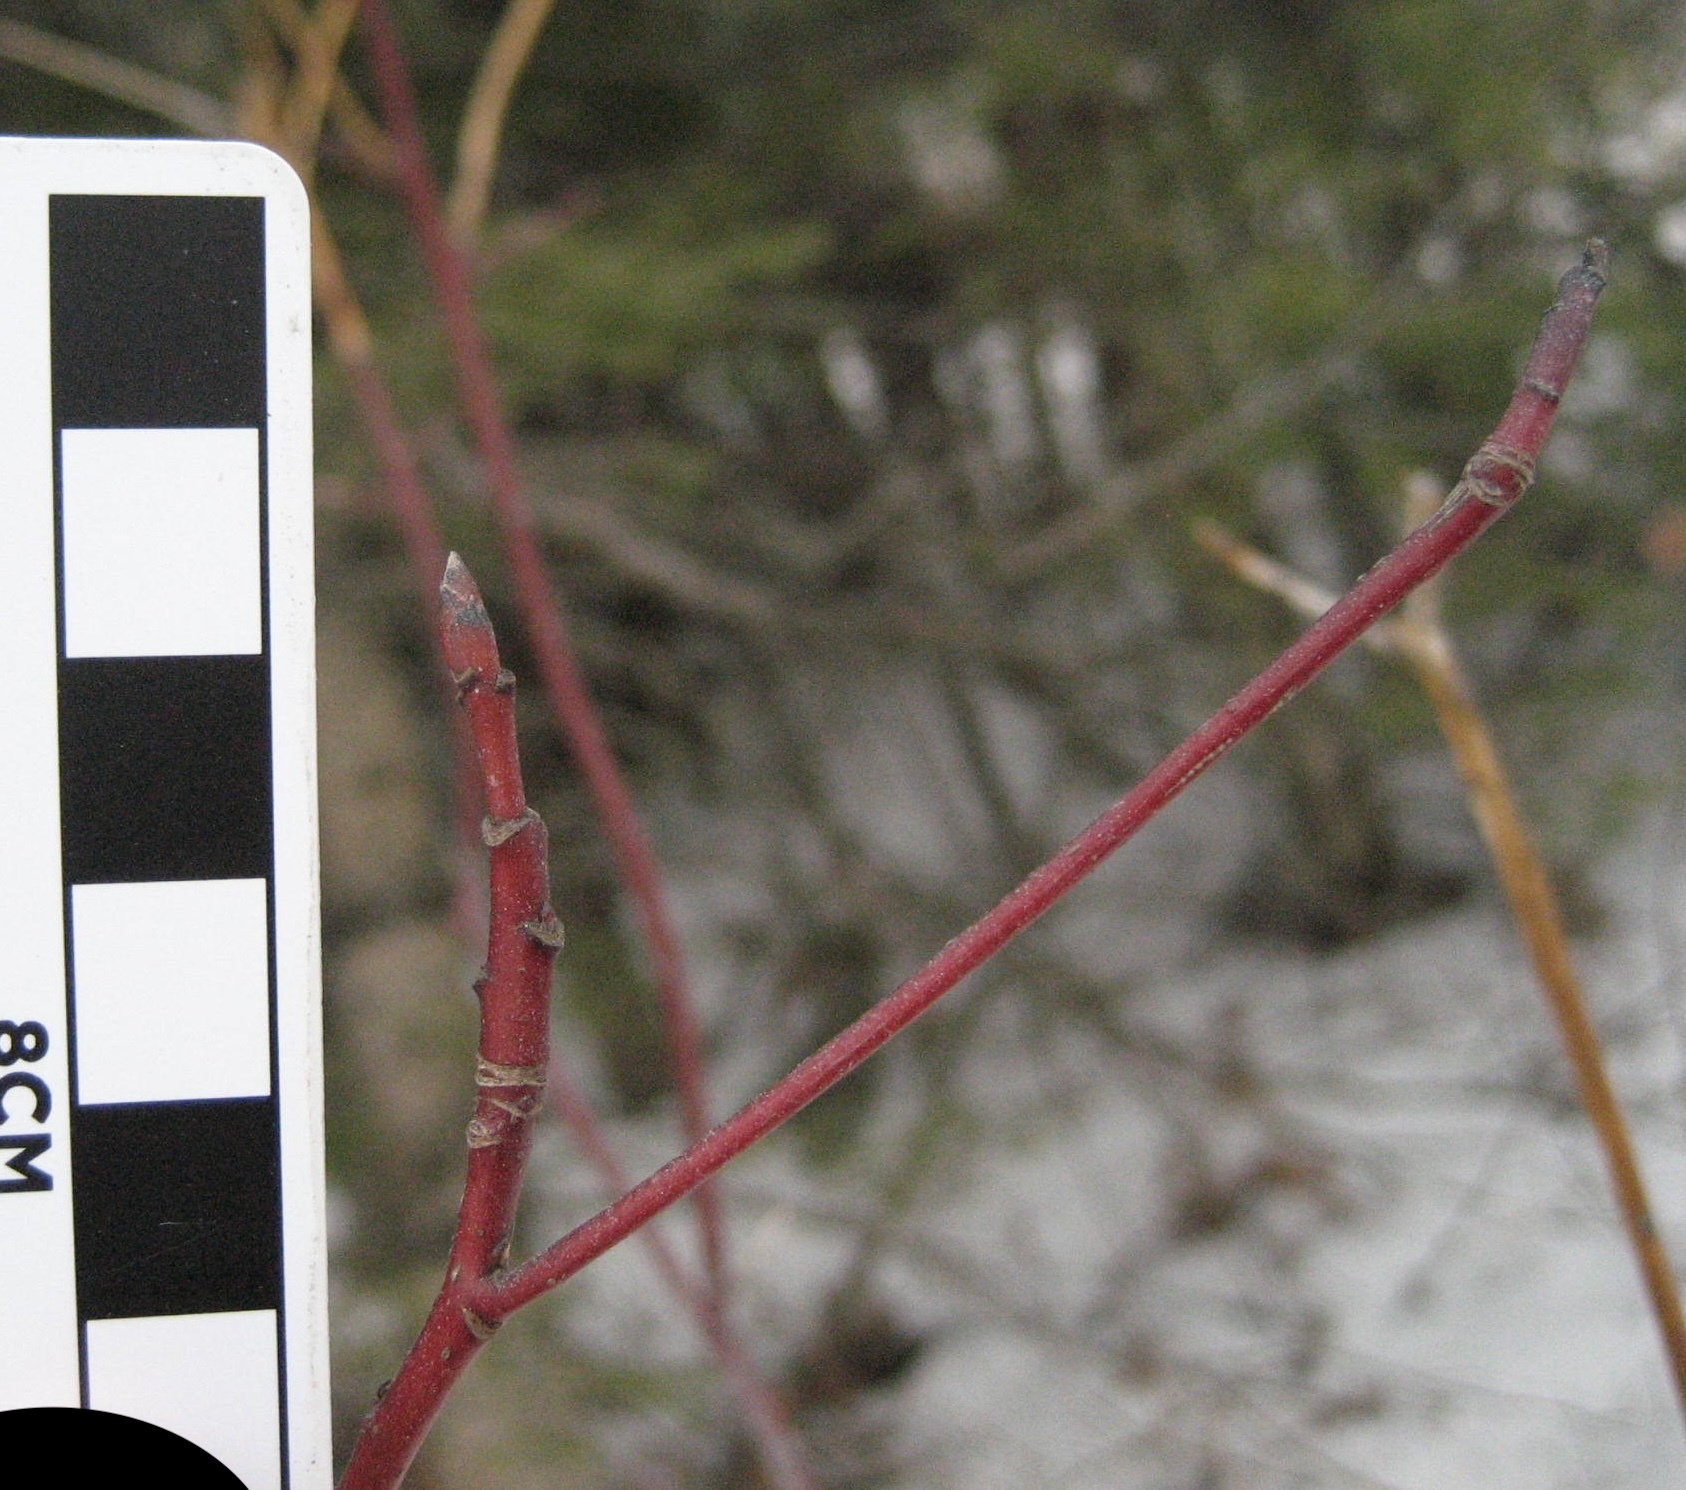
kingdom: Plantae
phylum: Tracheophyta
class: Magnoliopsida
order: Cornales
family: Cornaceae
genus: Cornus
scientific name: Cornus alternifolia
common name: Pagoda dogwood
